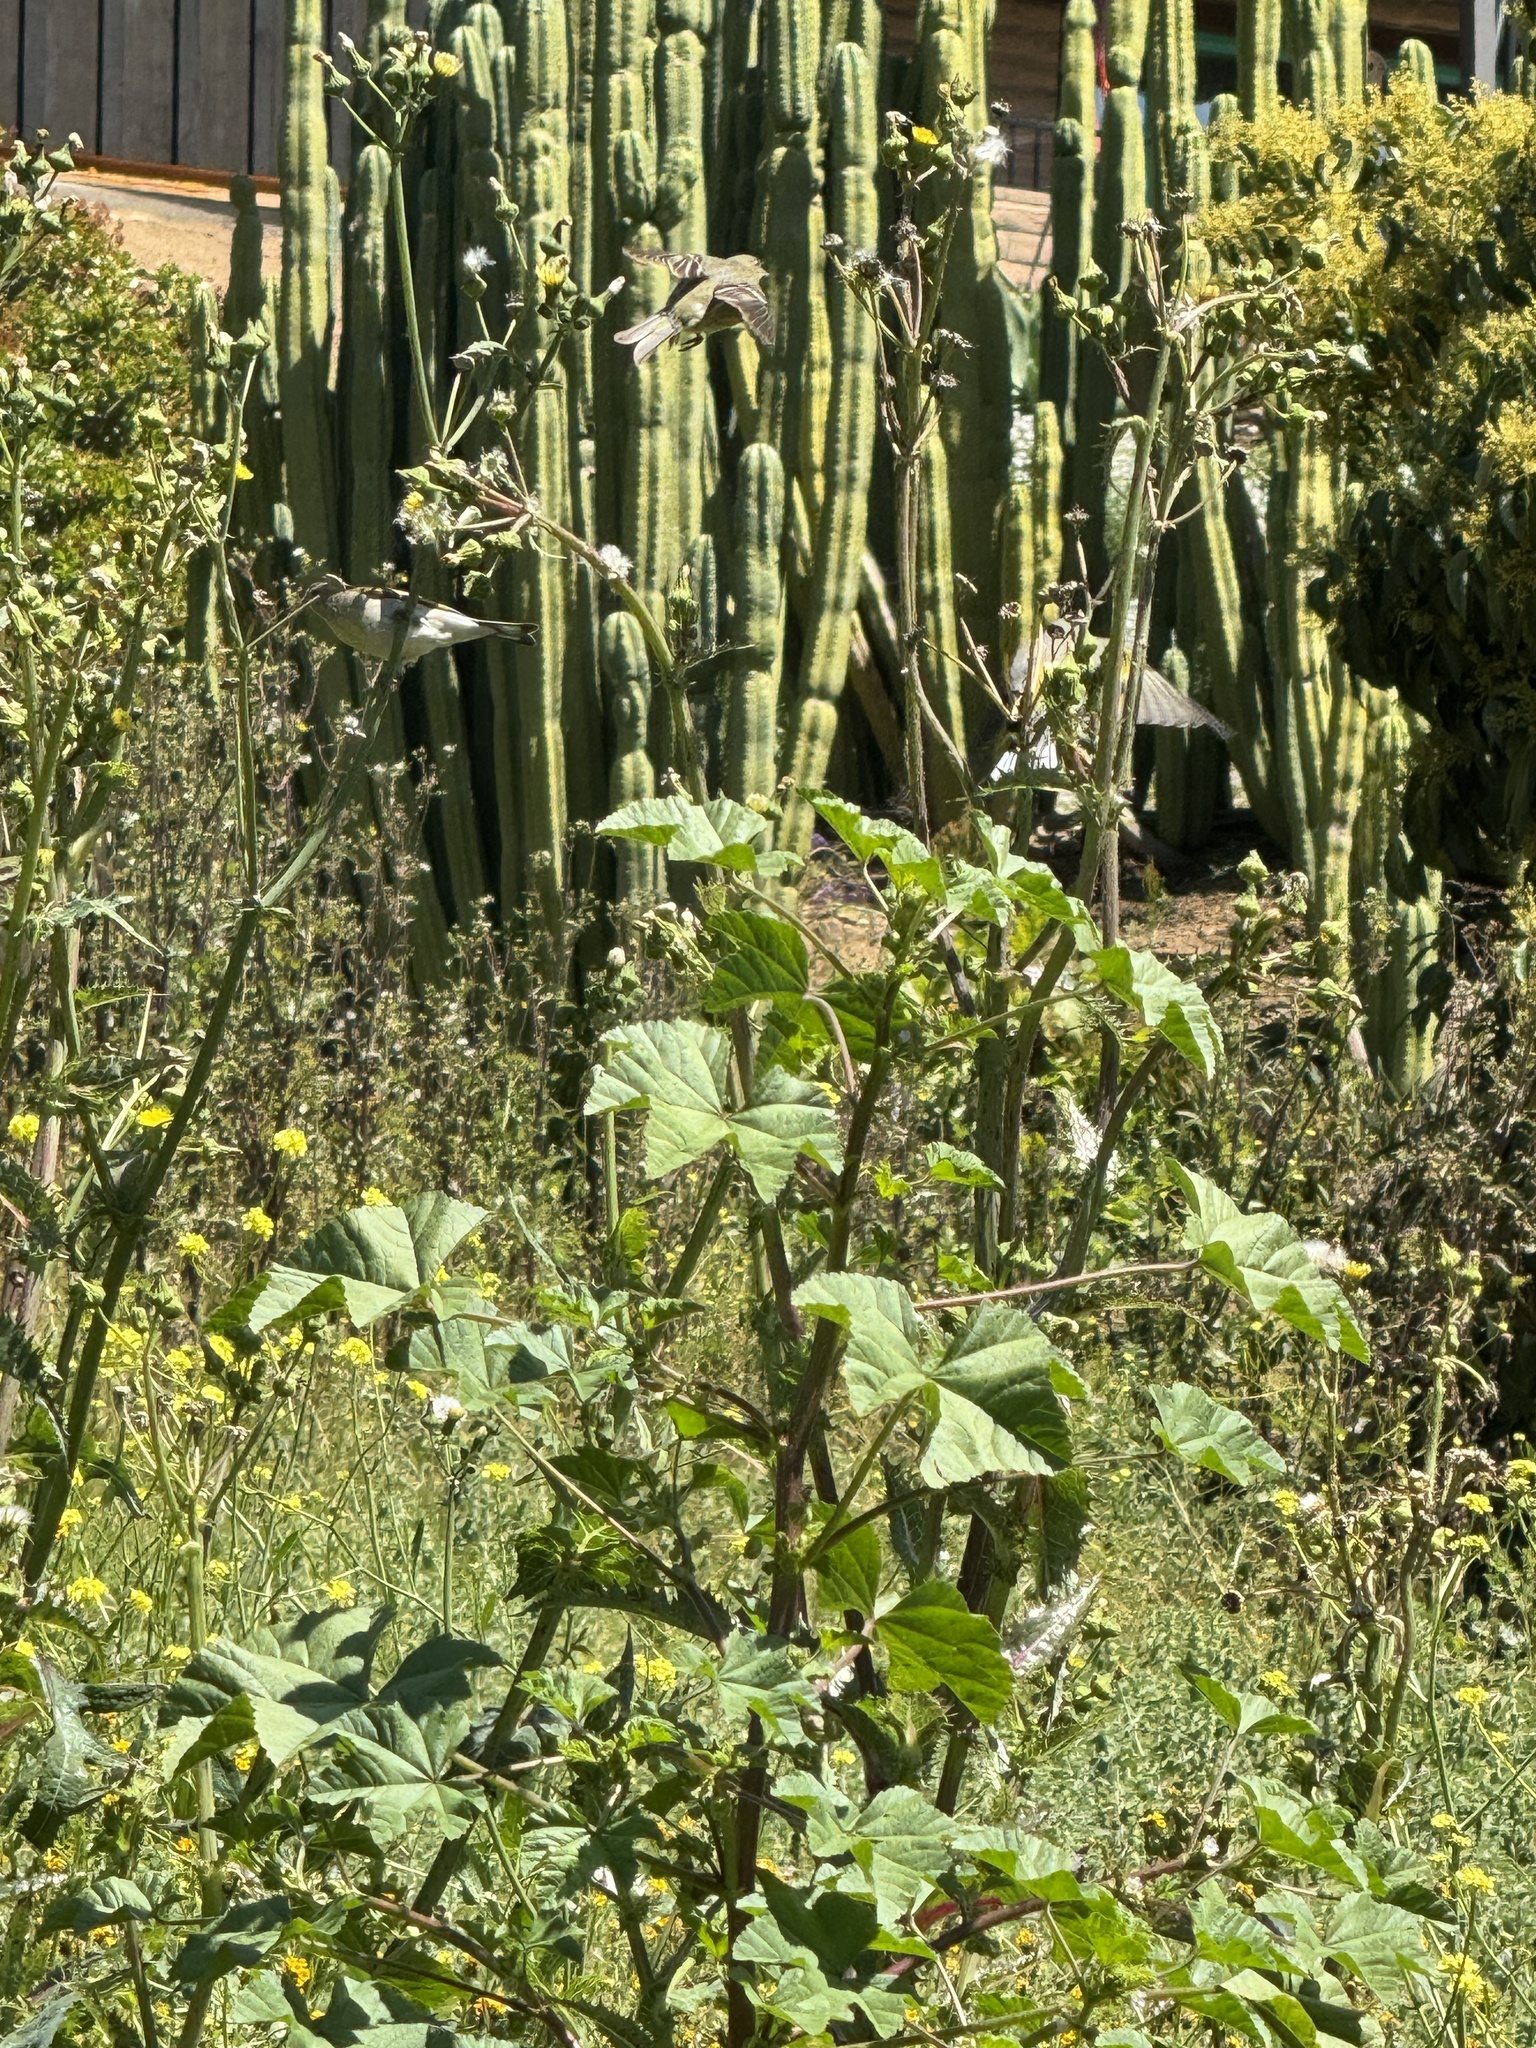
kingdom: Animalia
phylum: Chordata
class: Aves
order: Passeriformes
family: Fringillidae
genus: Spinus
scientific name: Spinus psaltria
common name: Lesser goldfinch
